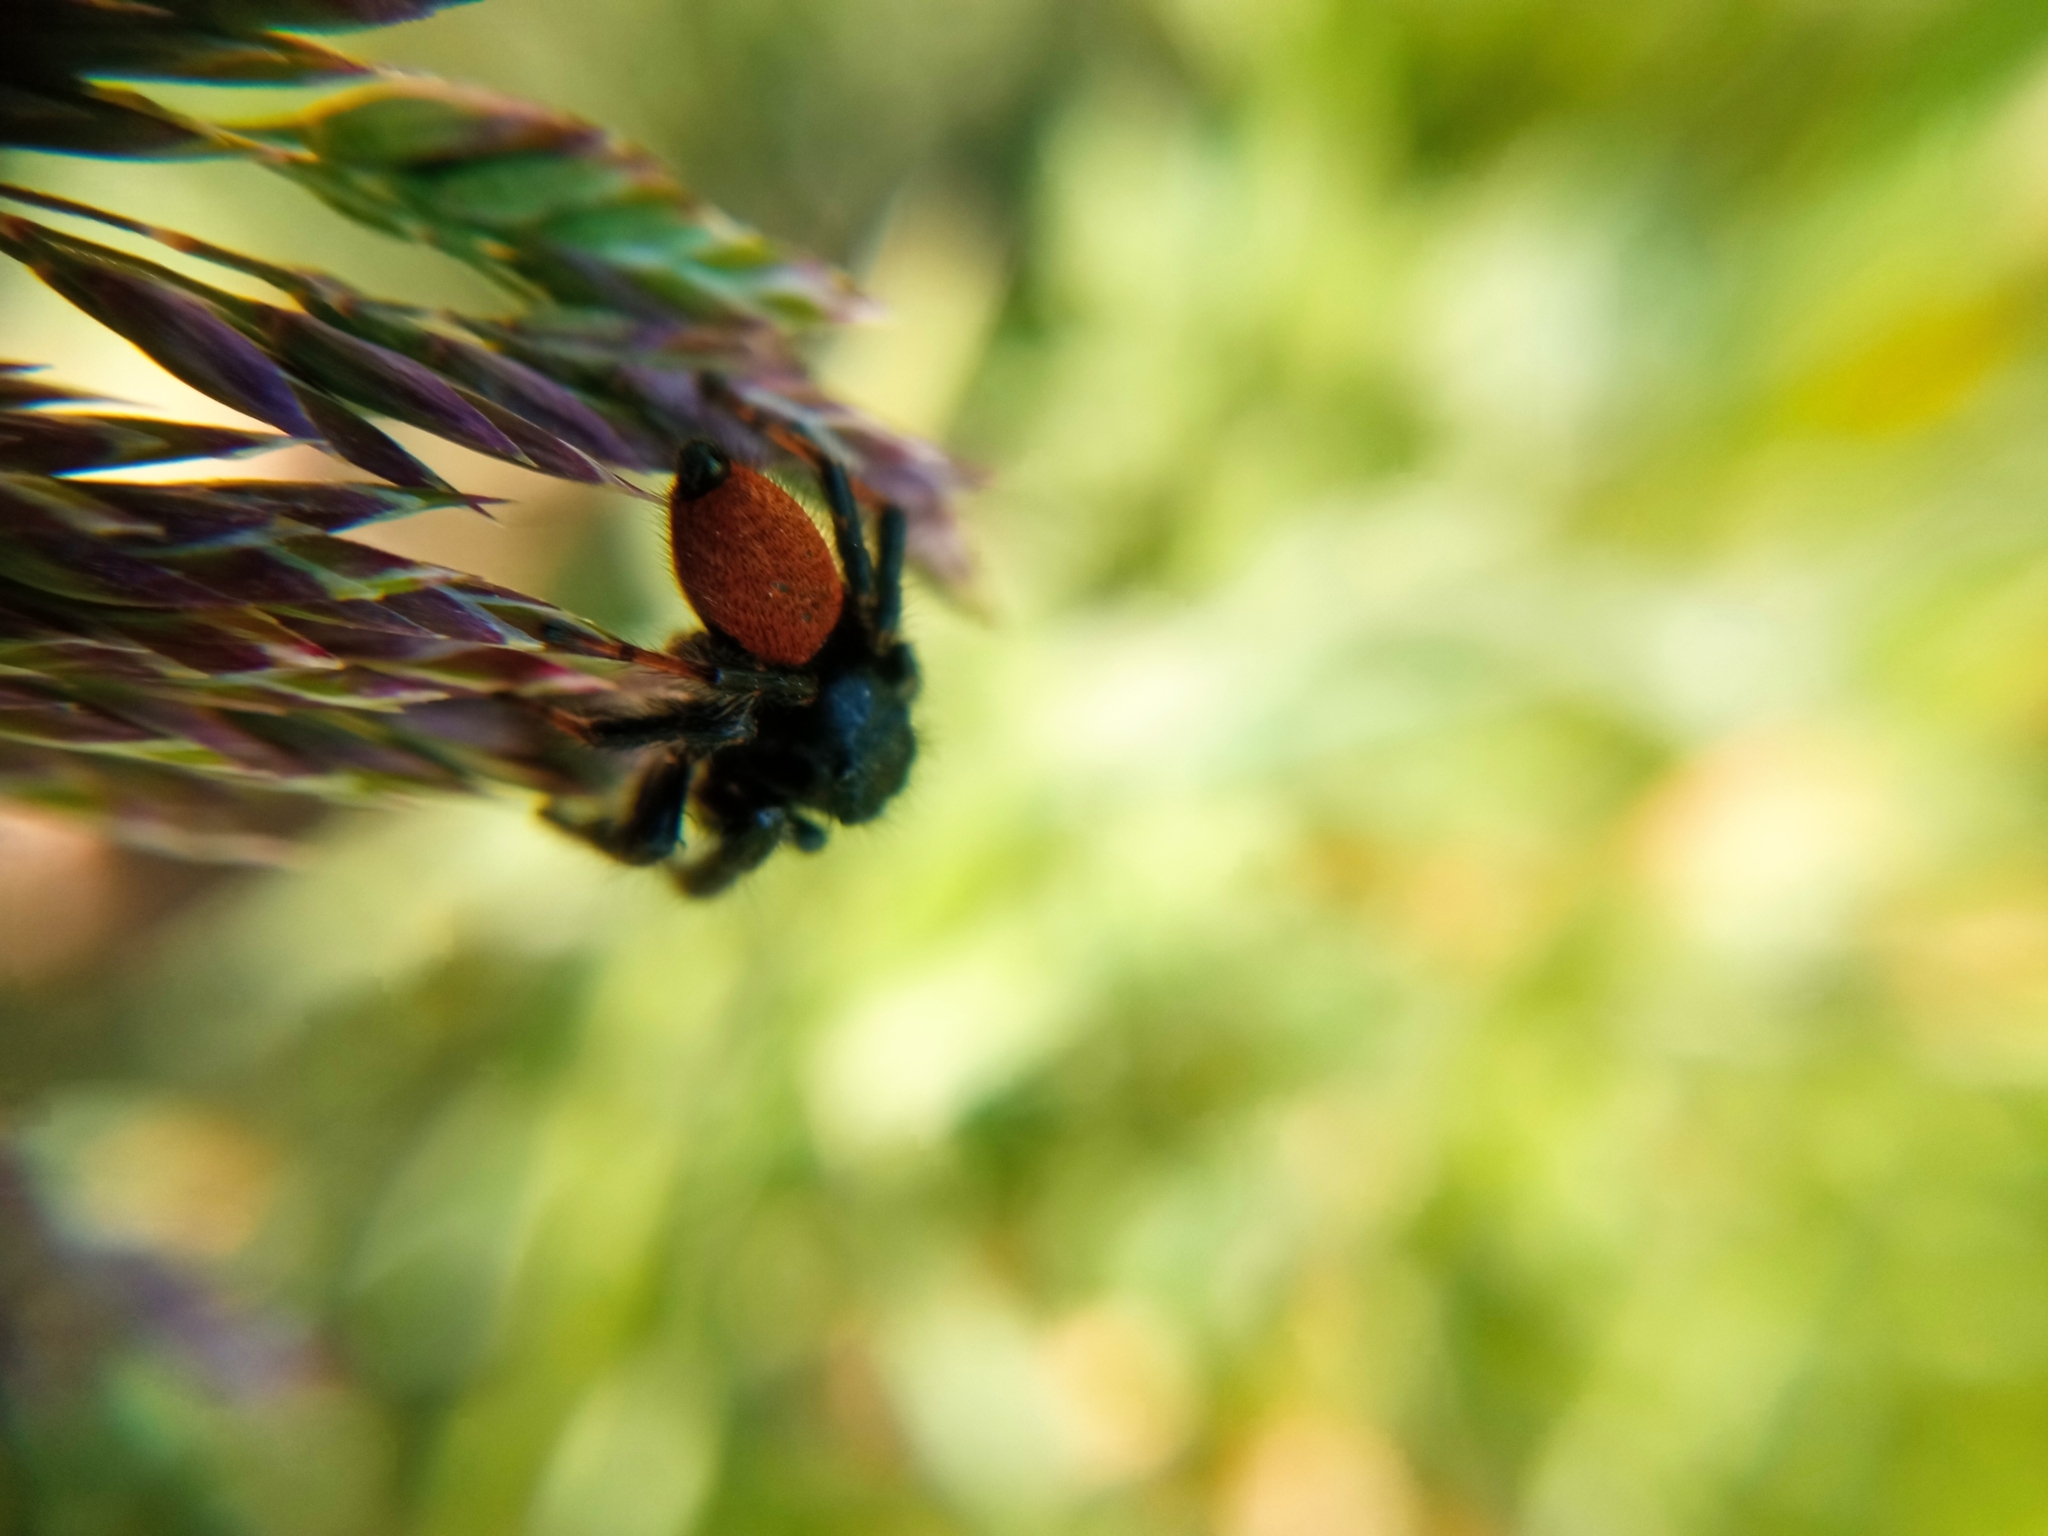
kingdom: Animalia
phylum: Arthropoda
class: Arachnida
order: Araneae
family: Salticidae
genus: Carrhotus
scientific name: Carrhotus xanthogramma
